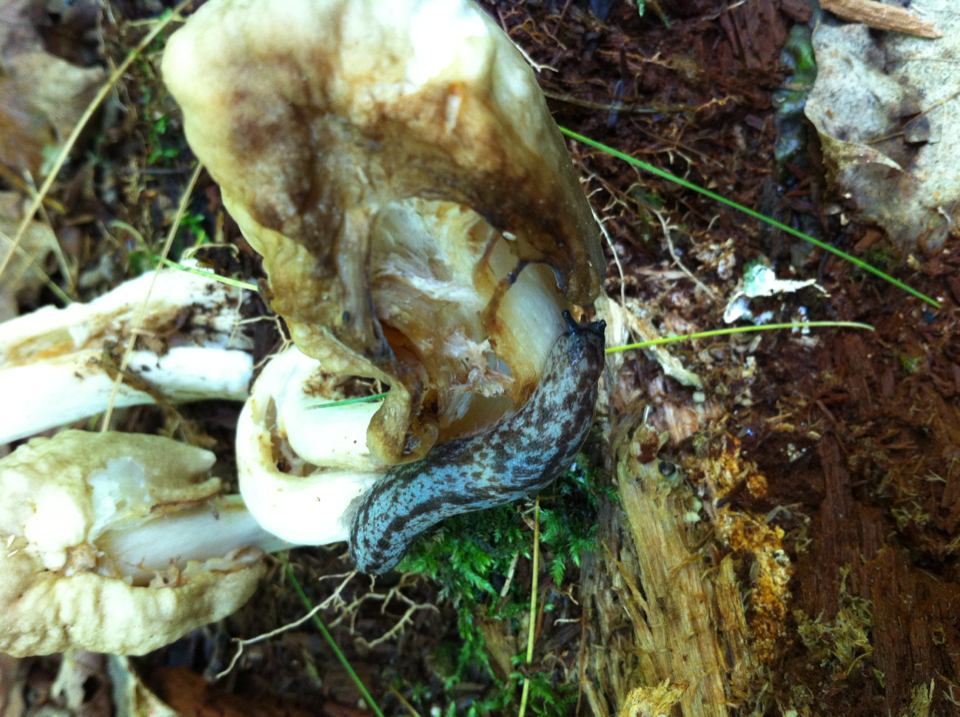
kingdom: Animalia
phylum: Mollusca
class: Gastropoda
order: Stylommatophora
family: Philomycidae
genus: Philomycus
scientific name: Philomycus flexuolaris
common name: Winding mantleslug
